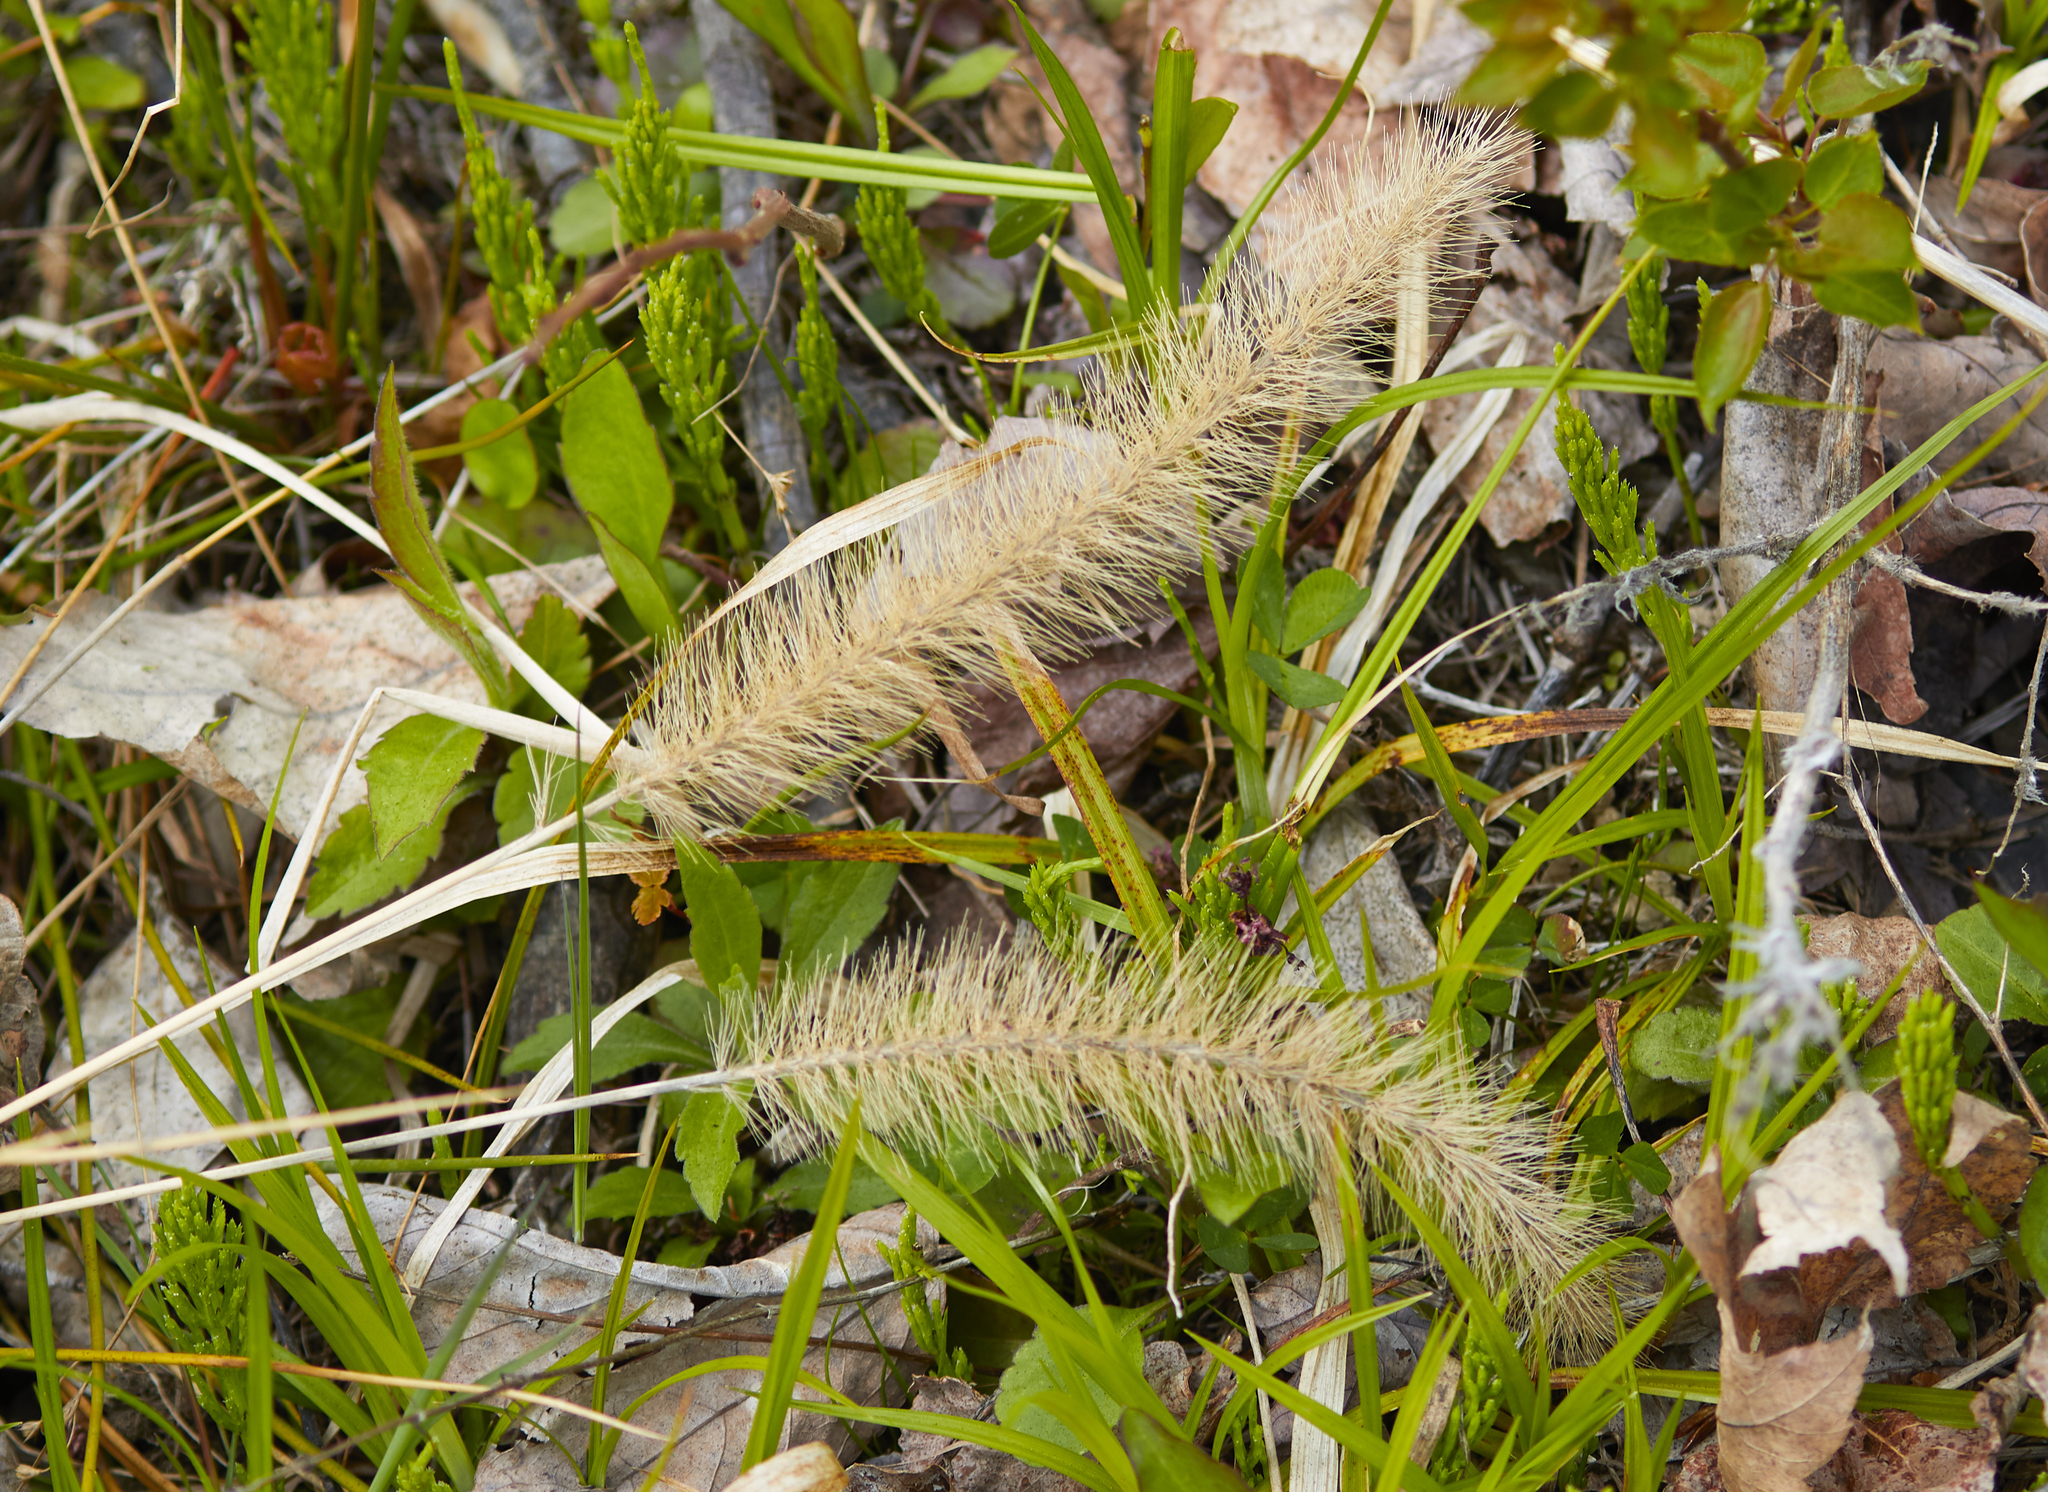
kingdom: Plantae
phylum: Tracheophyta
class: Liliopsida
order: Poales
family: Poaceae
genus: Setaria
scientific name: Setaria
